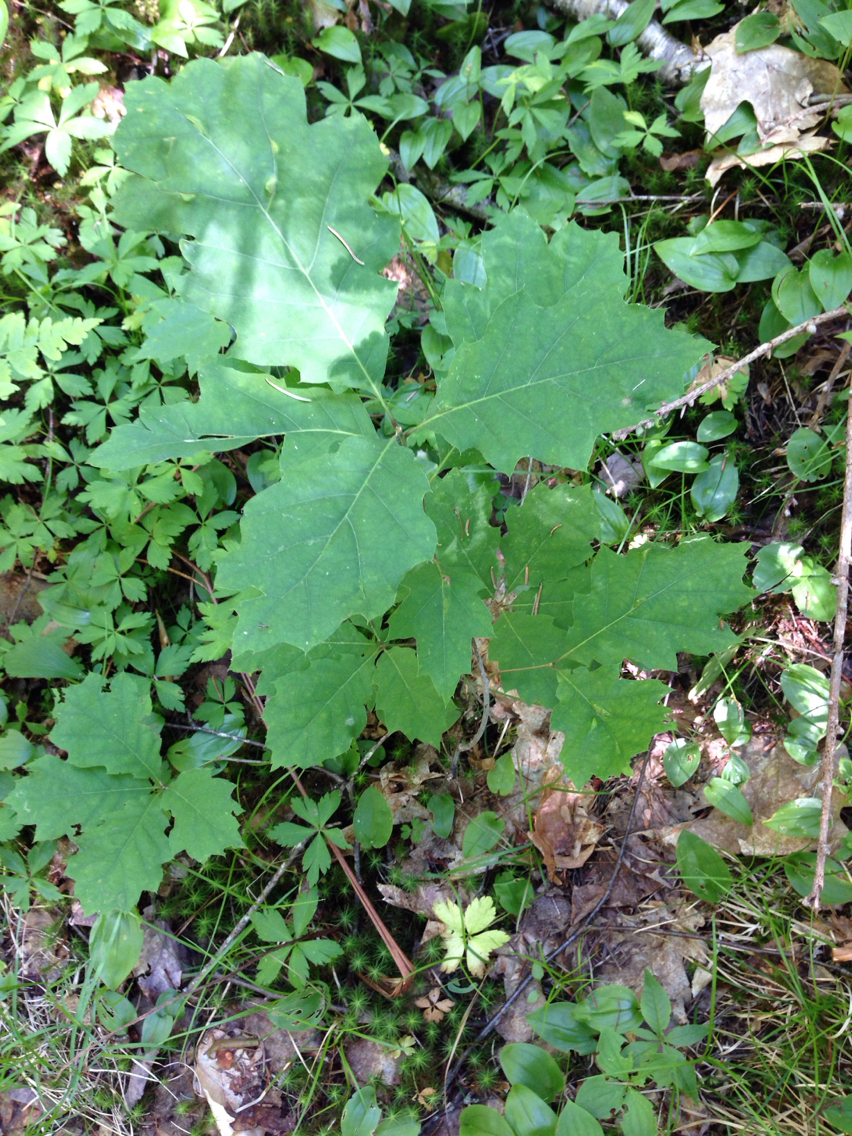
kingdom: Plantae
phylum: Tracheophyta
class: Magnoliopsida
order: Fagales
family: Fagaceae
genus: Quercus
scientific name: Quercus rubra
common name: Red oak
